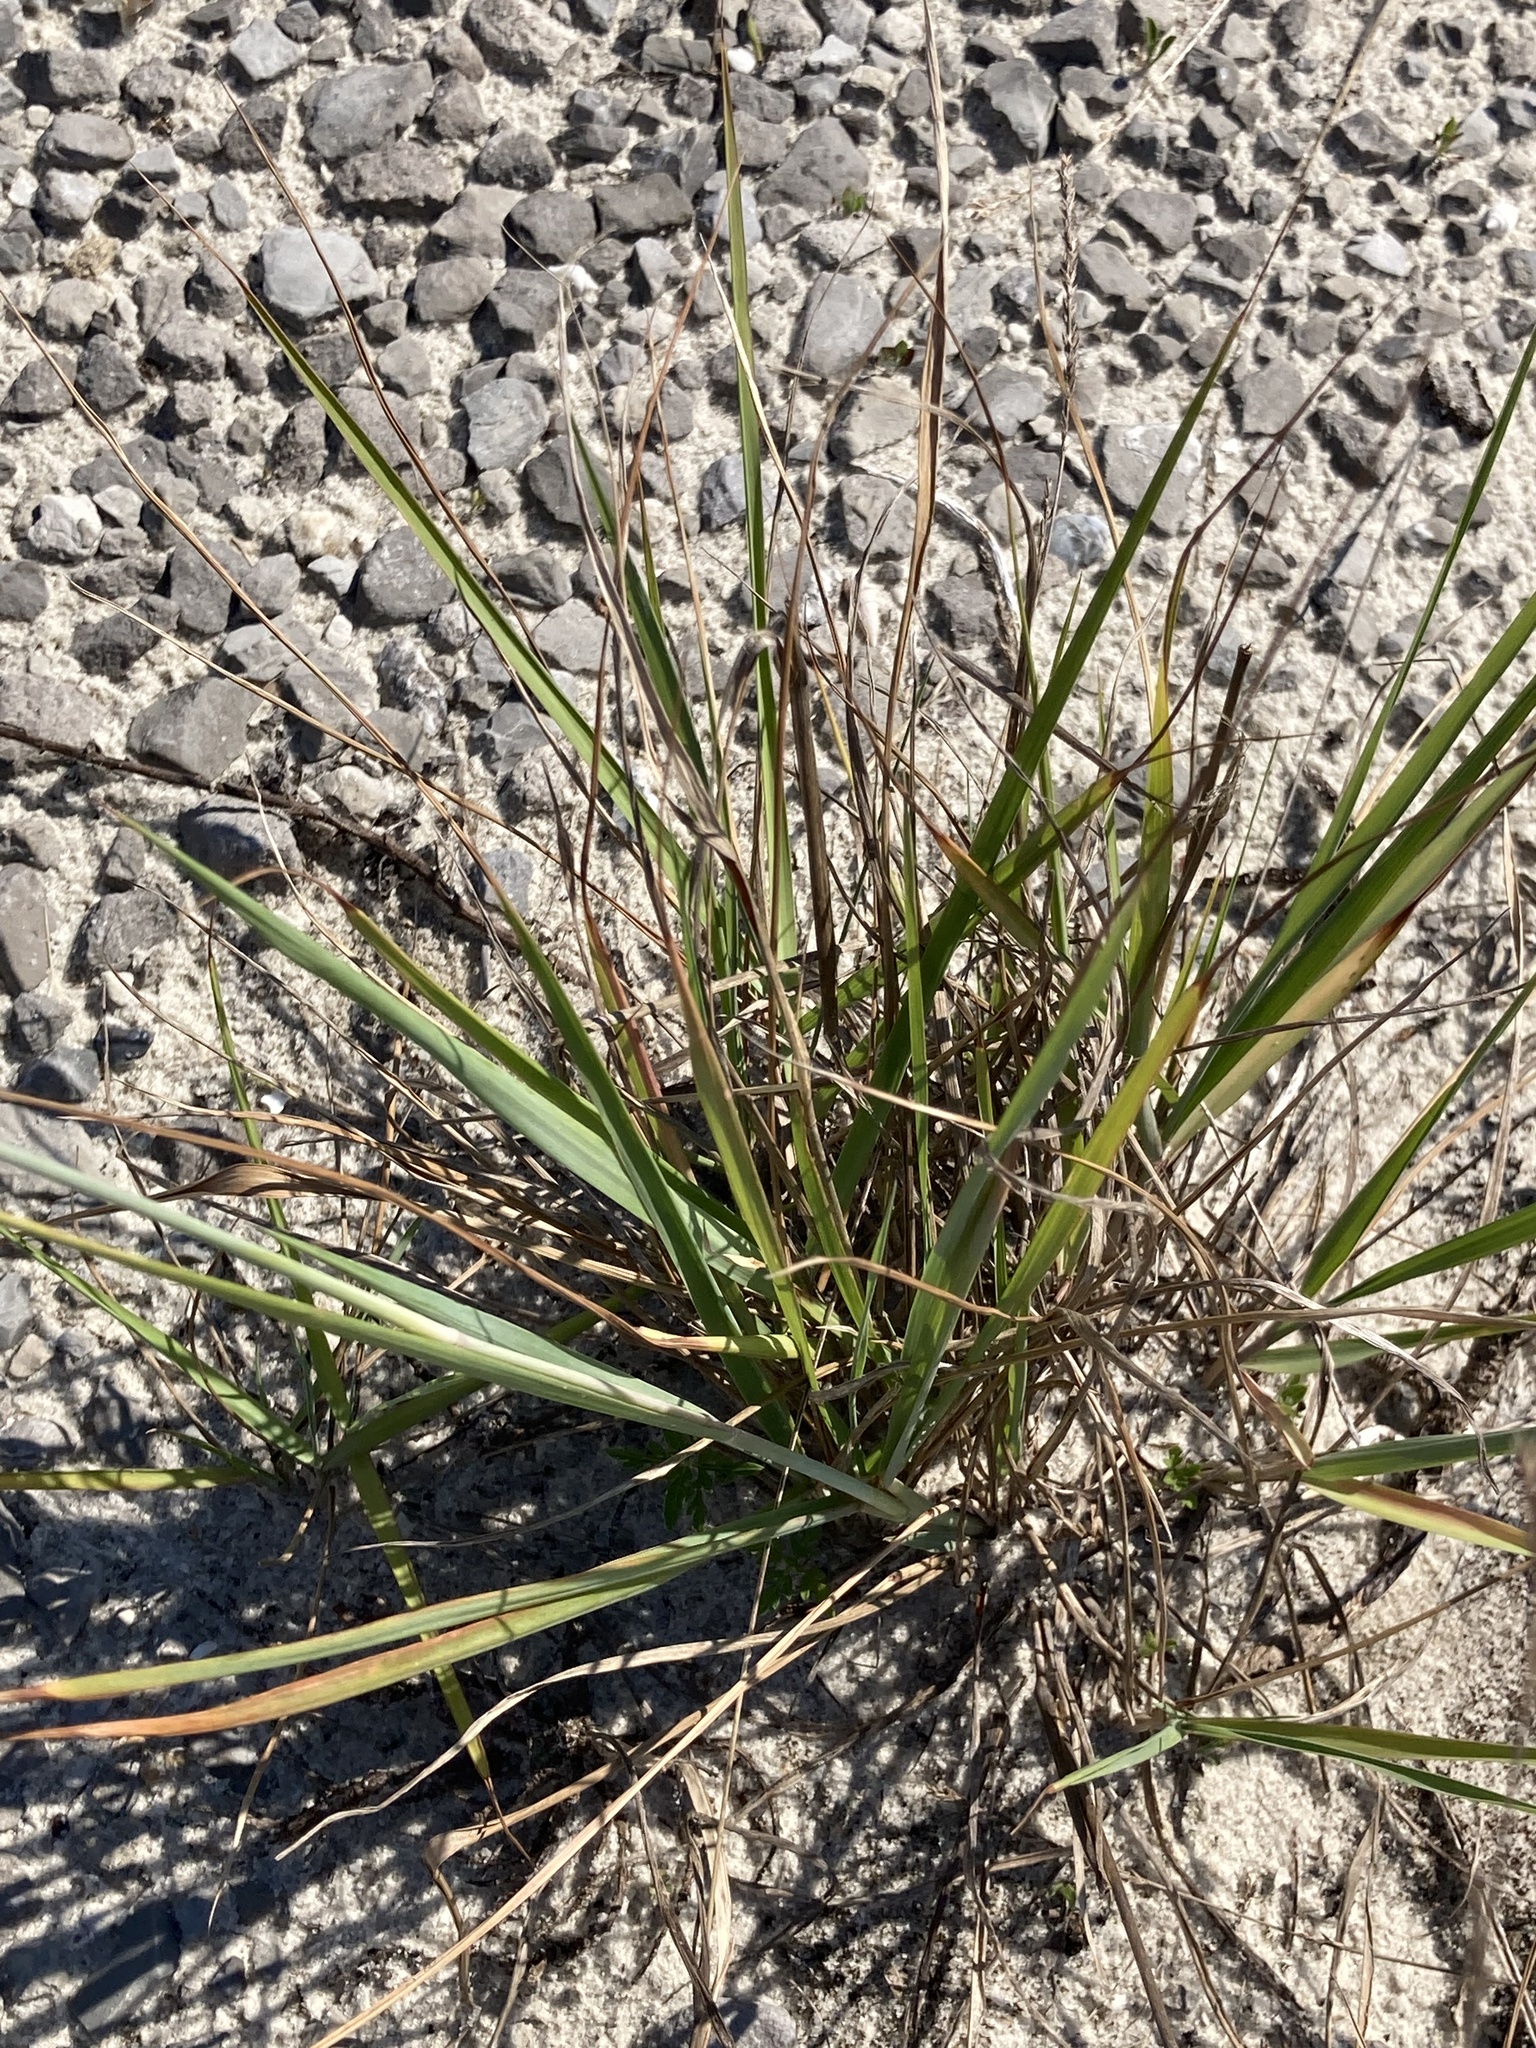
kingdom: Plantae
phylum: Tracheophyta
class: Liliopsida
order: Poales
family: Poaceae
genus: Eragrostis
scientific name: Eragrostis secundiflora
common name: Red love grass
